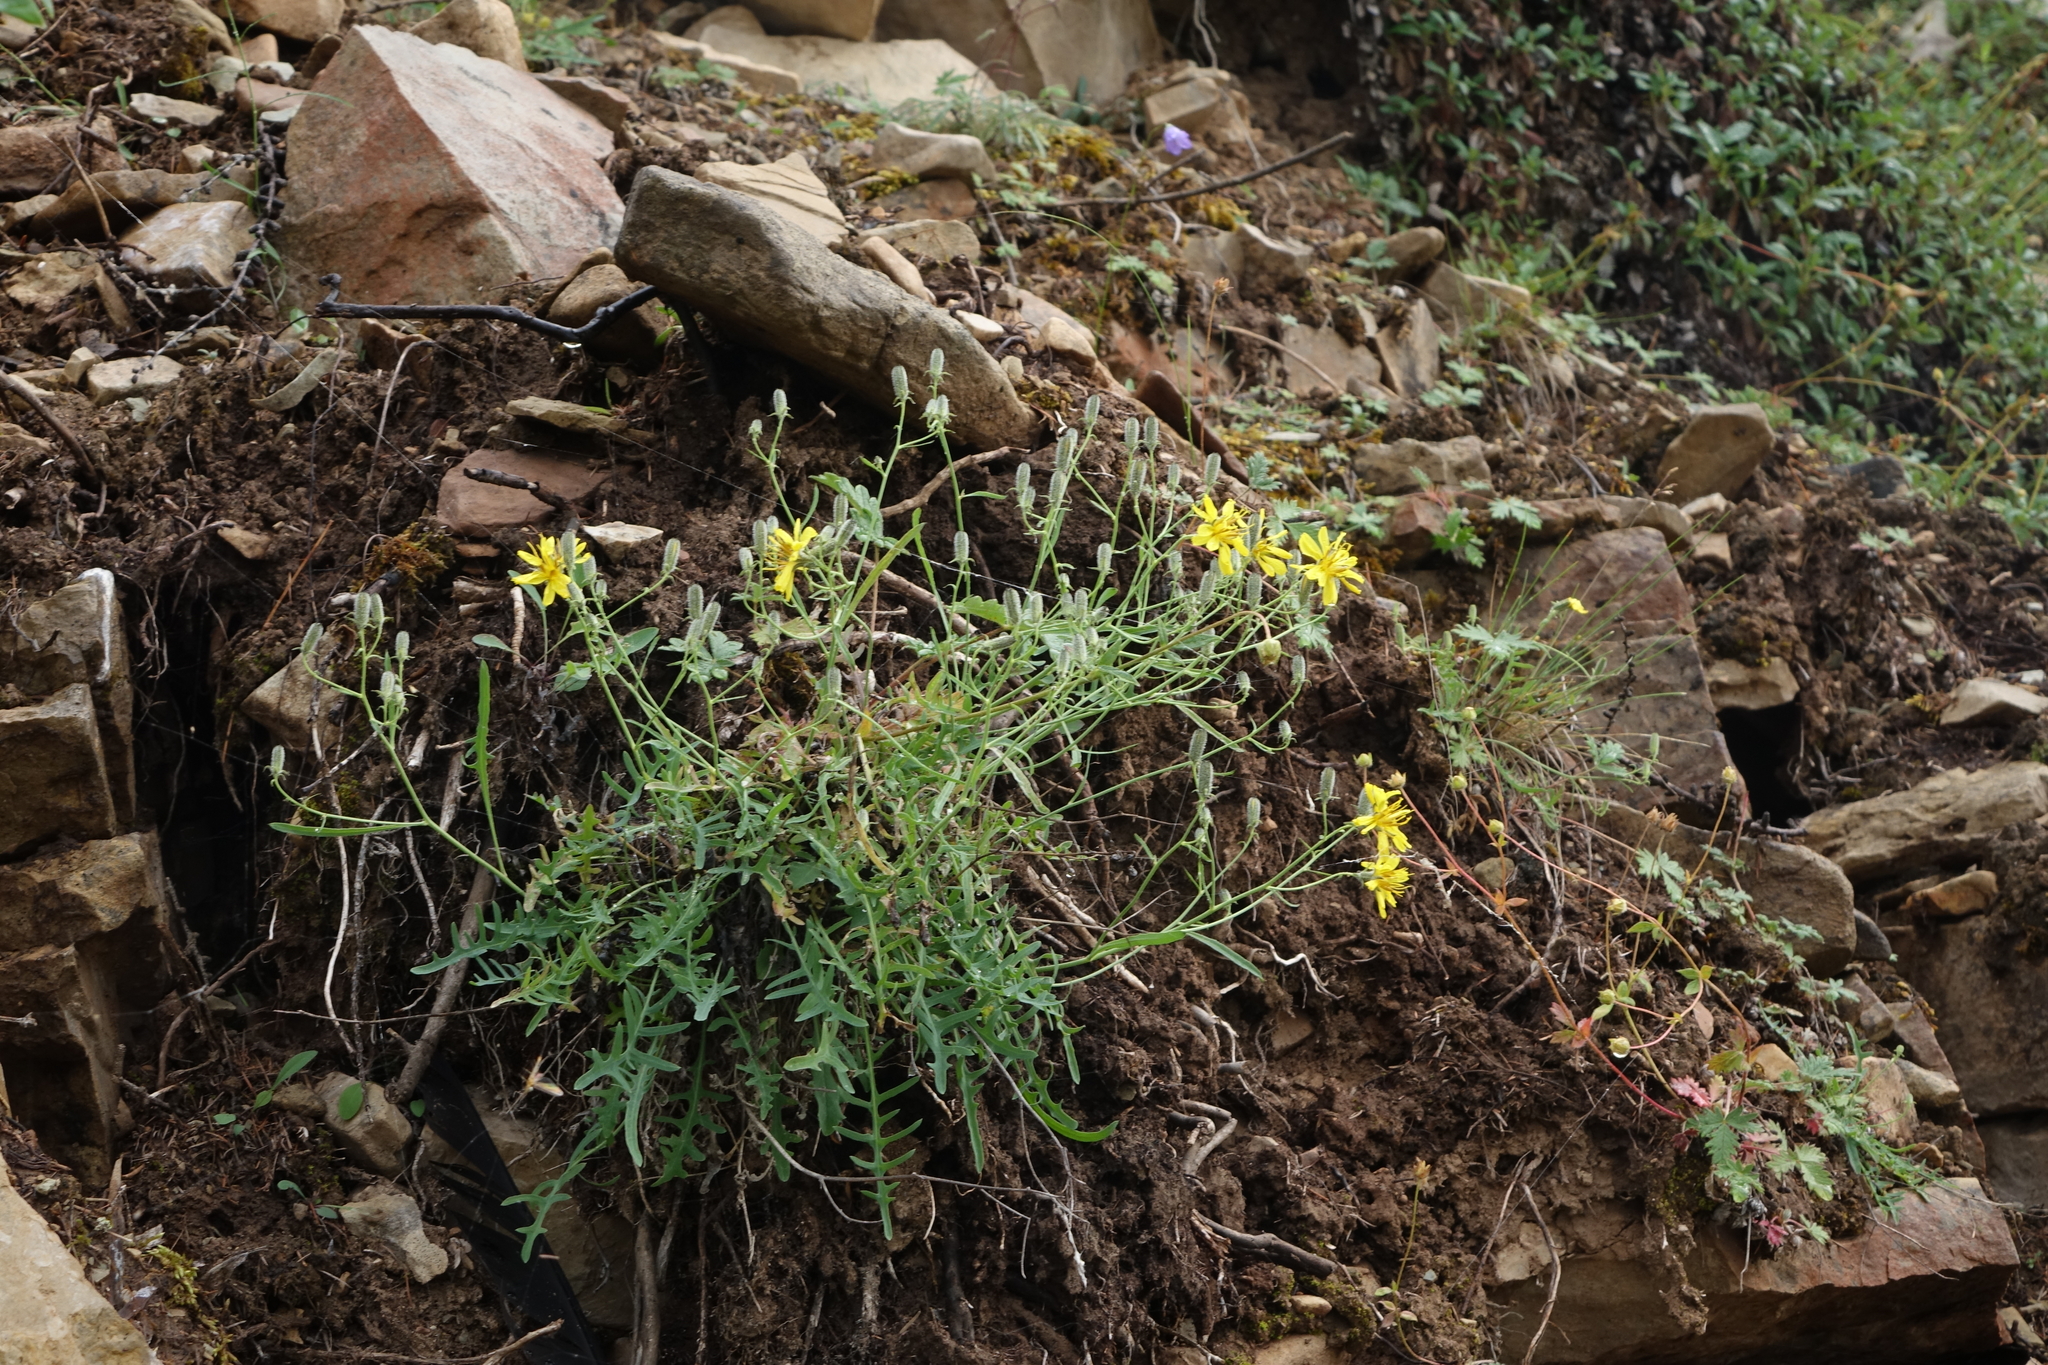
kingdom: Plantae
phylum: Tracheophyta
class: Magnoliopsida
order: Asterales
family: Asteraceae
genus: Crepidiastrum
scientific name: Crepidiastrum tenuifolium
